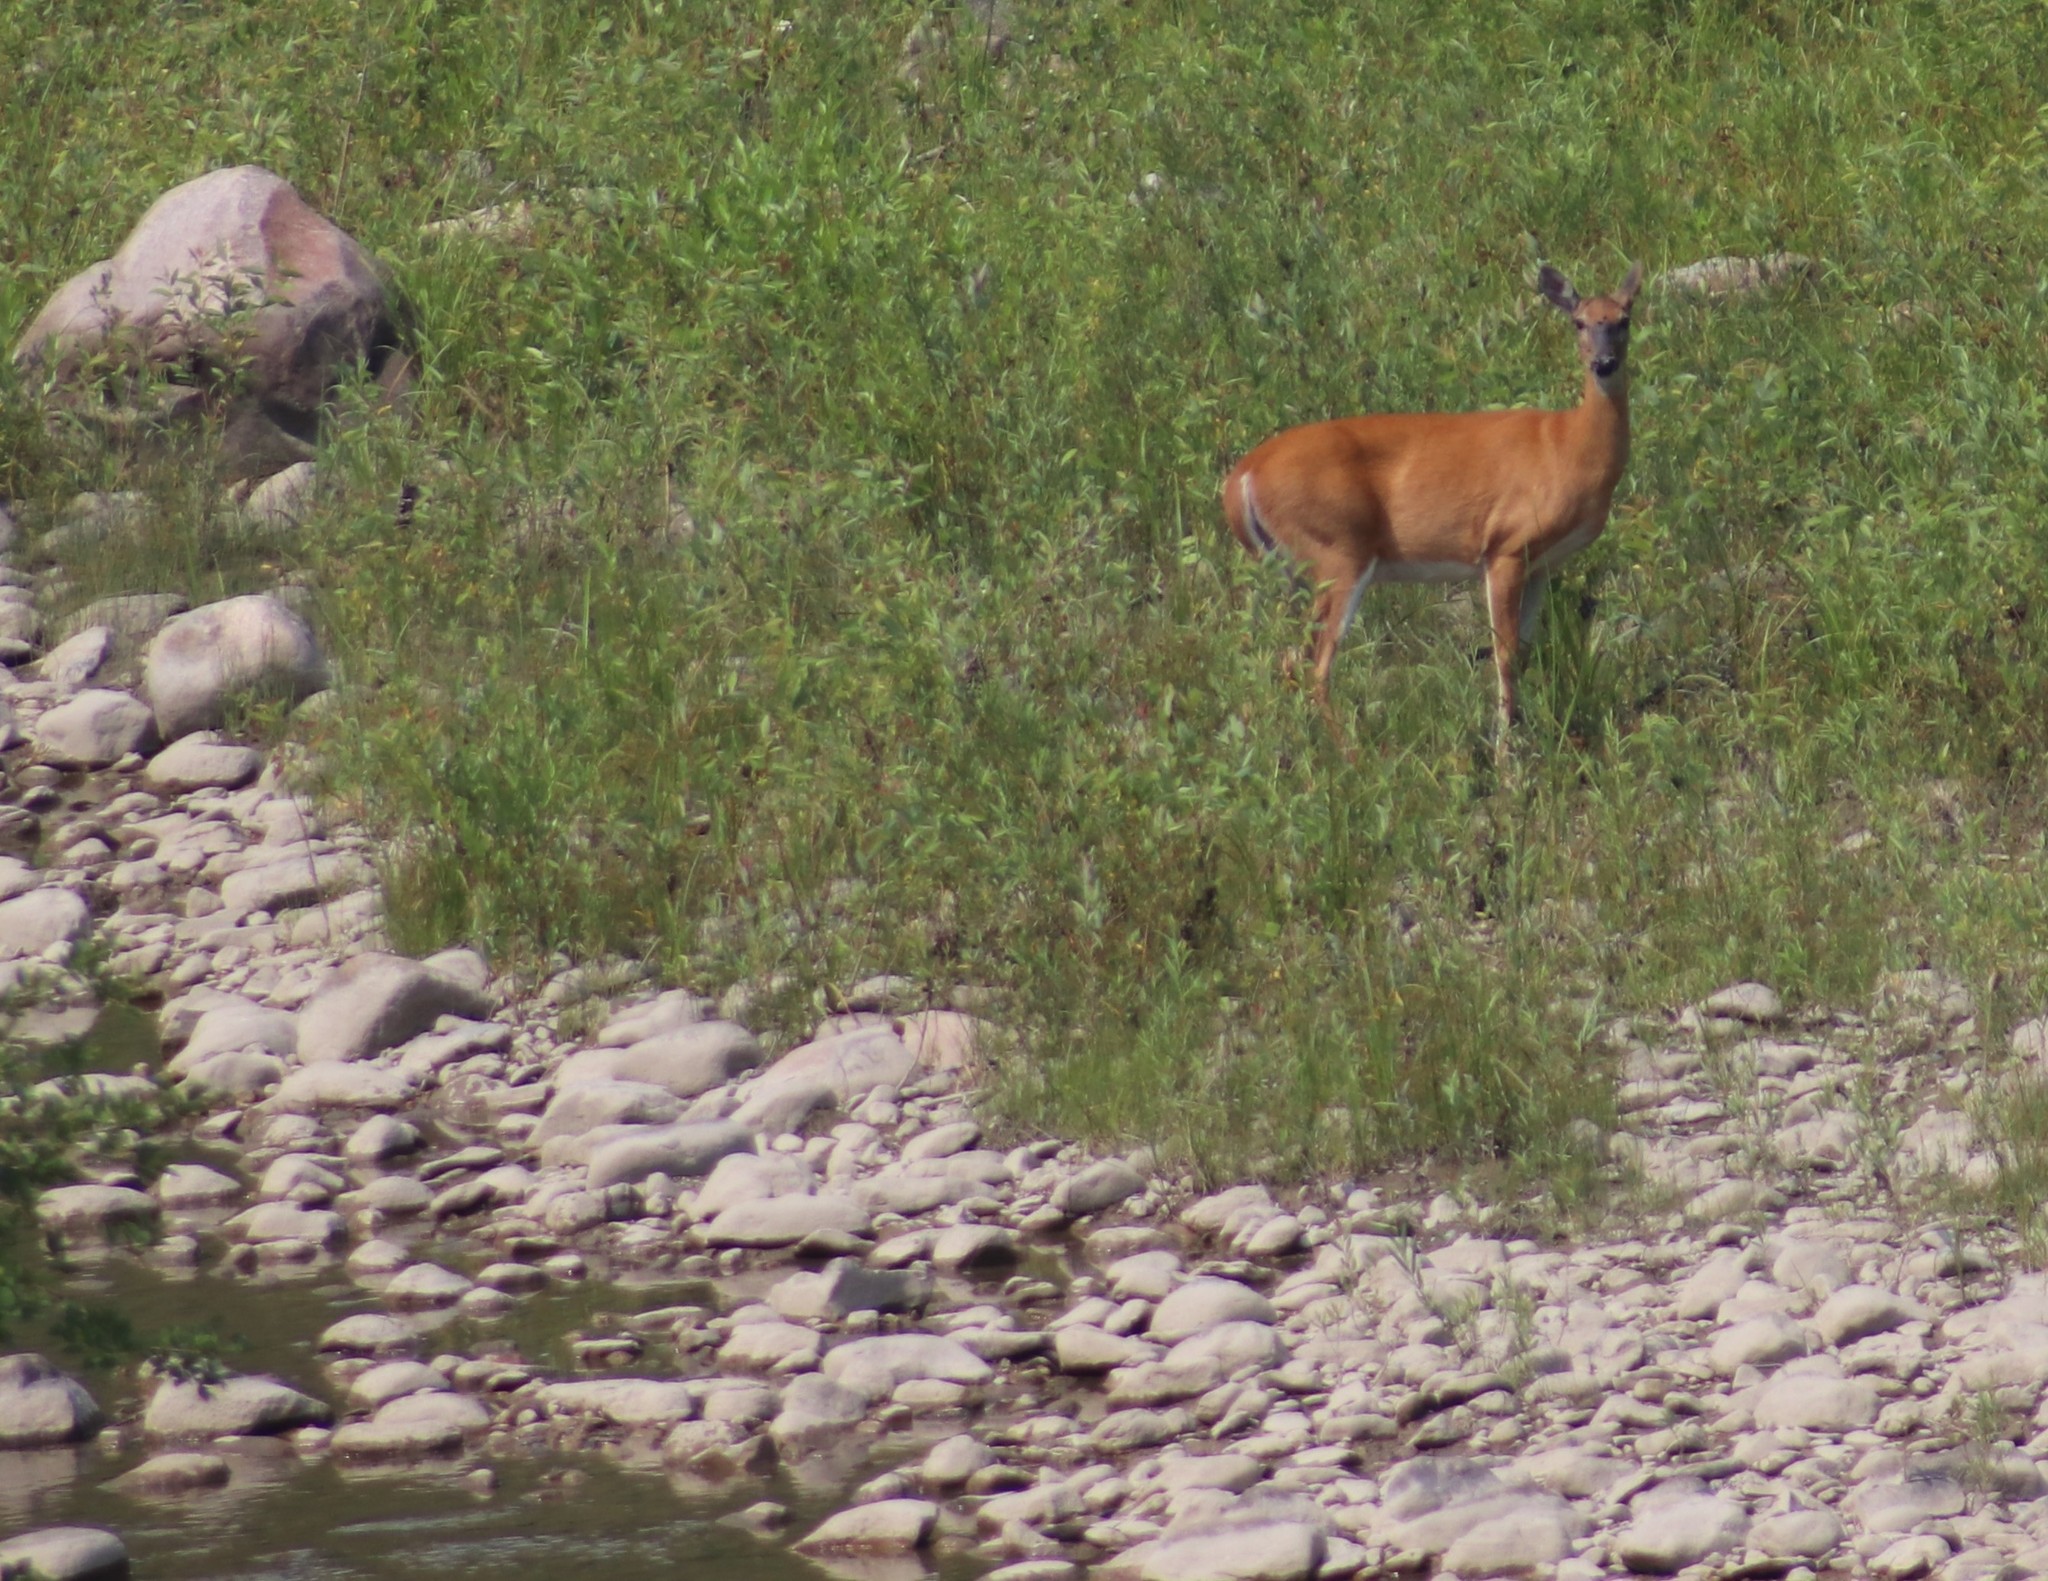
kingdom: Animalia
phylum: Chordata
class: Mammalia
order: Artiodactyla
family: Cervidae
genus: Odocoileus
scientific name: Odocoileus virginianus
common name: White-tailed deer
